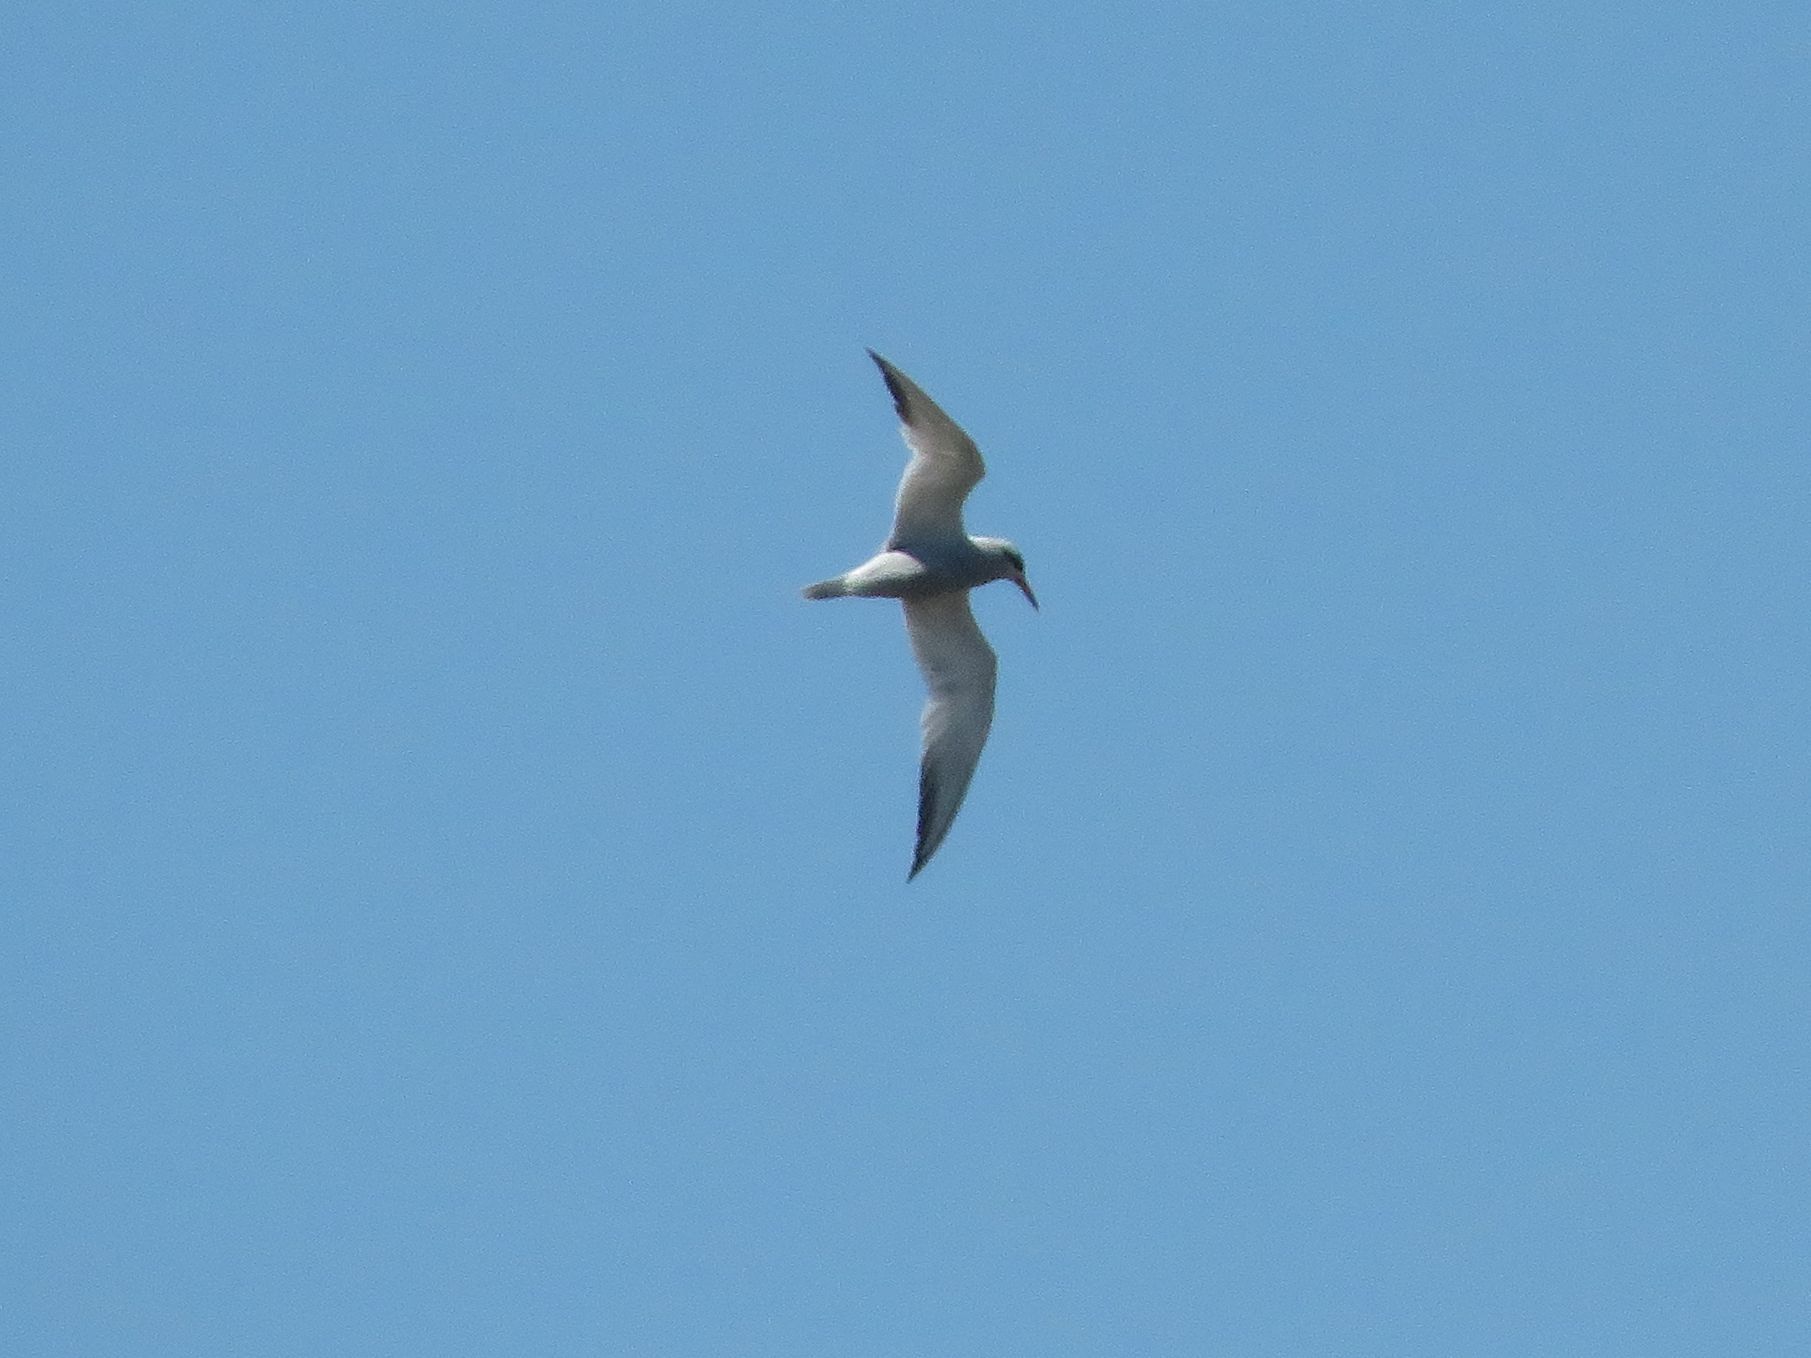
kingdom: Animalia
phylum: Chordata
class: Aves
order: Charadriiformes
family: Laridae
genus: Sterna
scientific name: Sterna trudeaui
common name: Snowy-crowned tern
